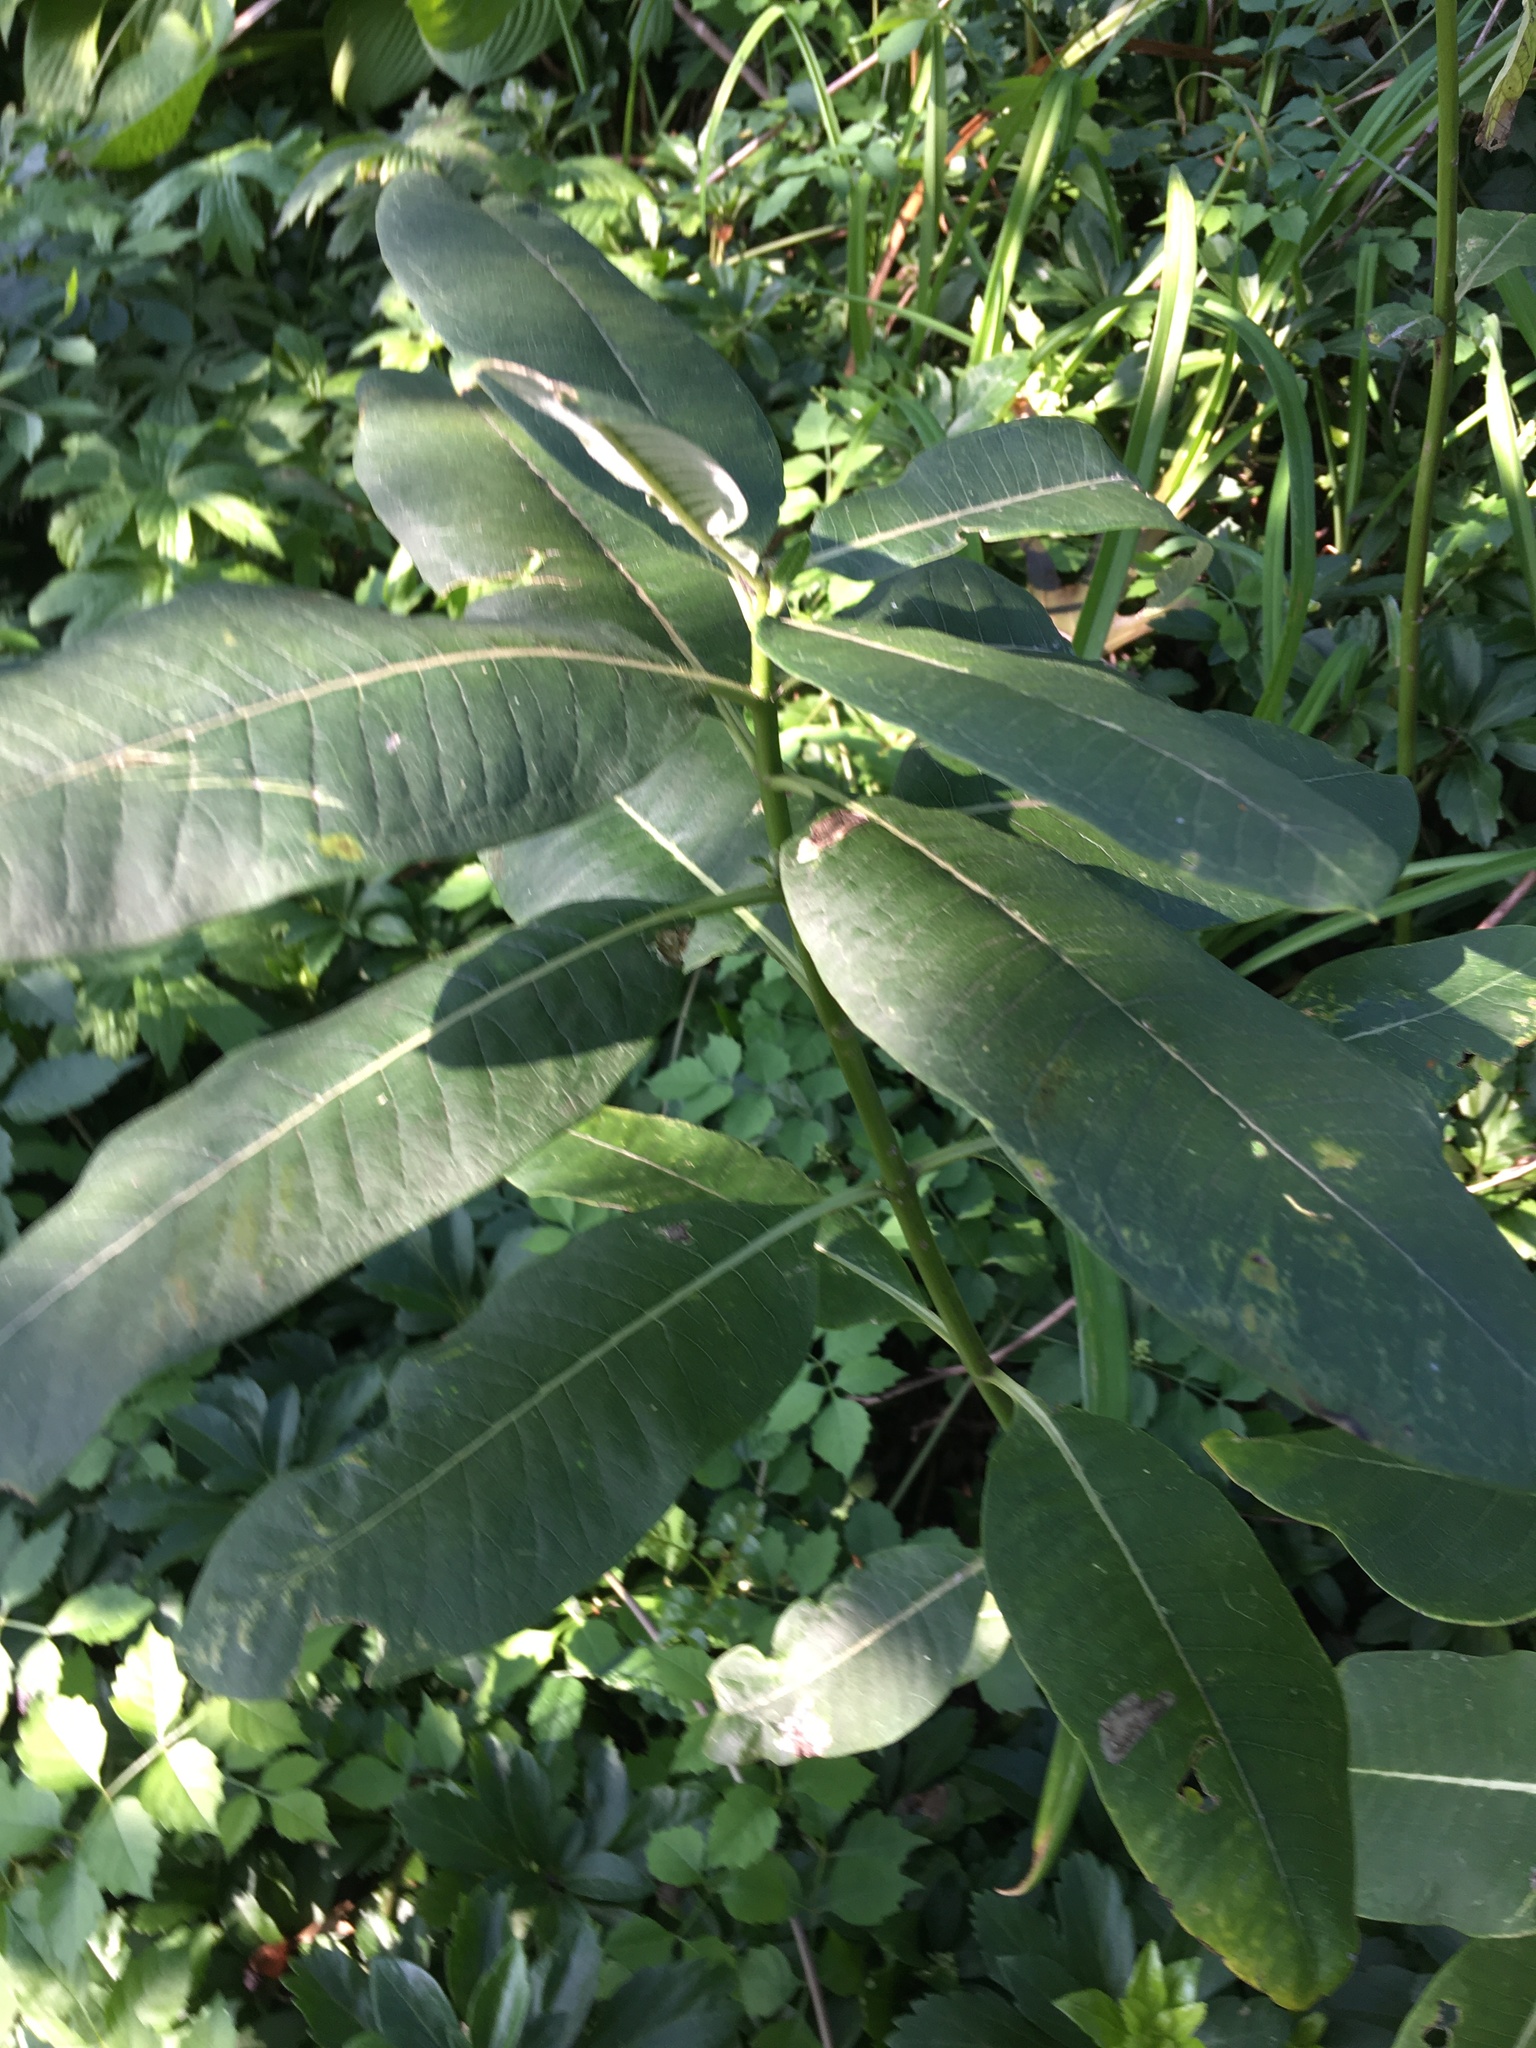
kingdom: Plantae
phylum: Tracheophyta
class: Magnoliopsida
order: Gentianales
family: Apocynaceae
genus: Asclepias
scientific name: Asclepias syriaca
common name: Common milkweed
